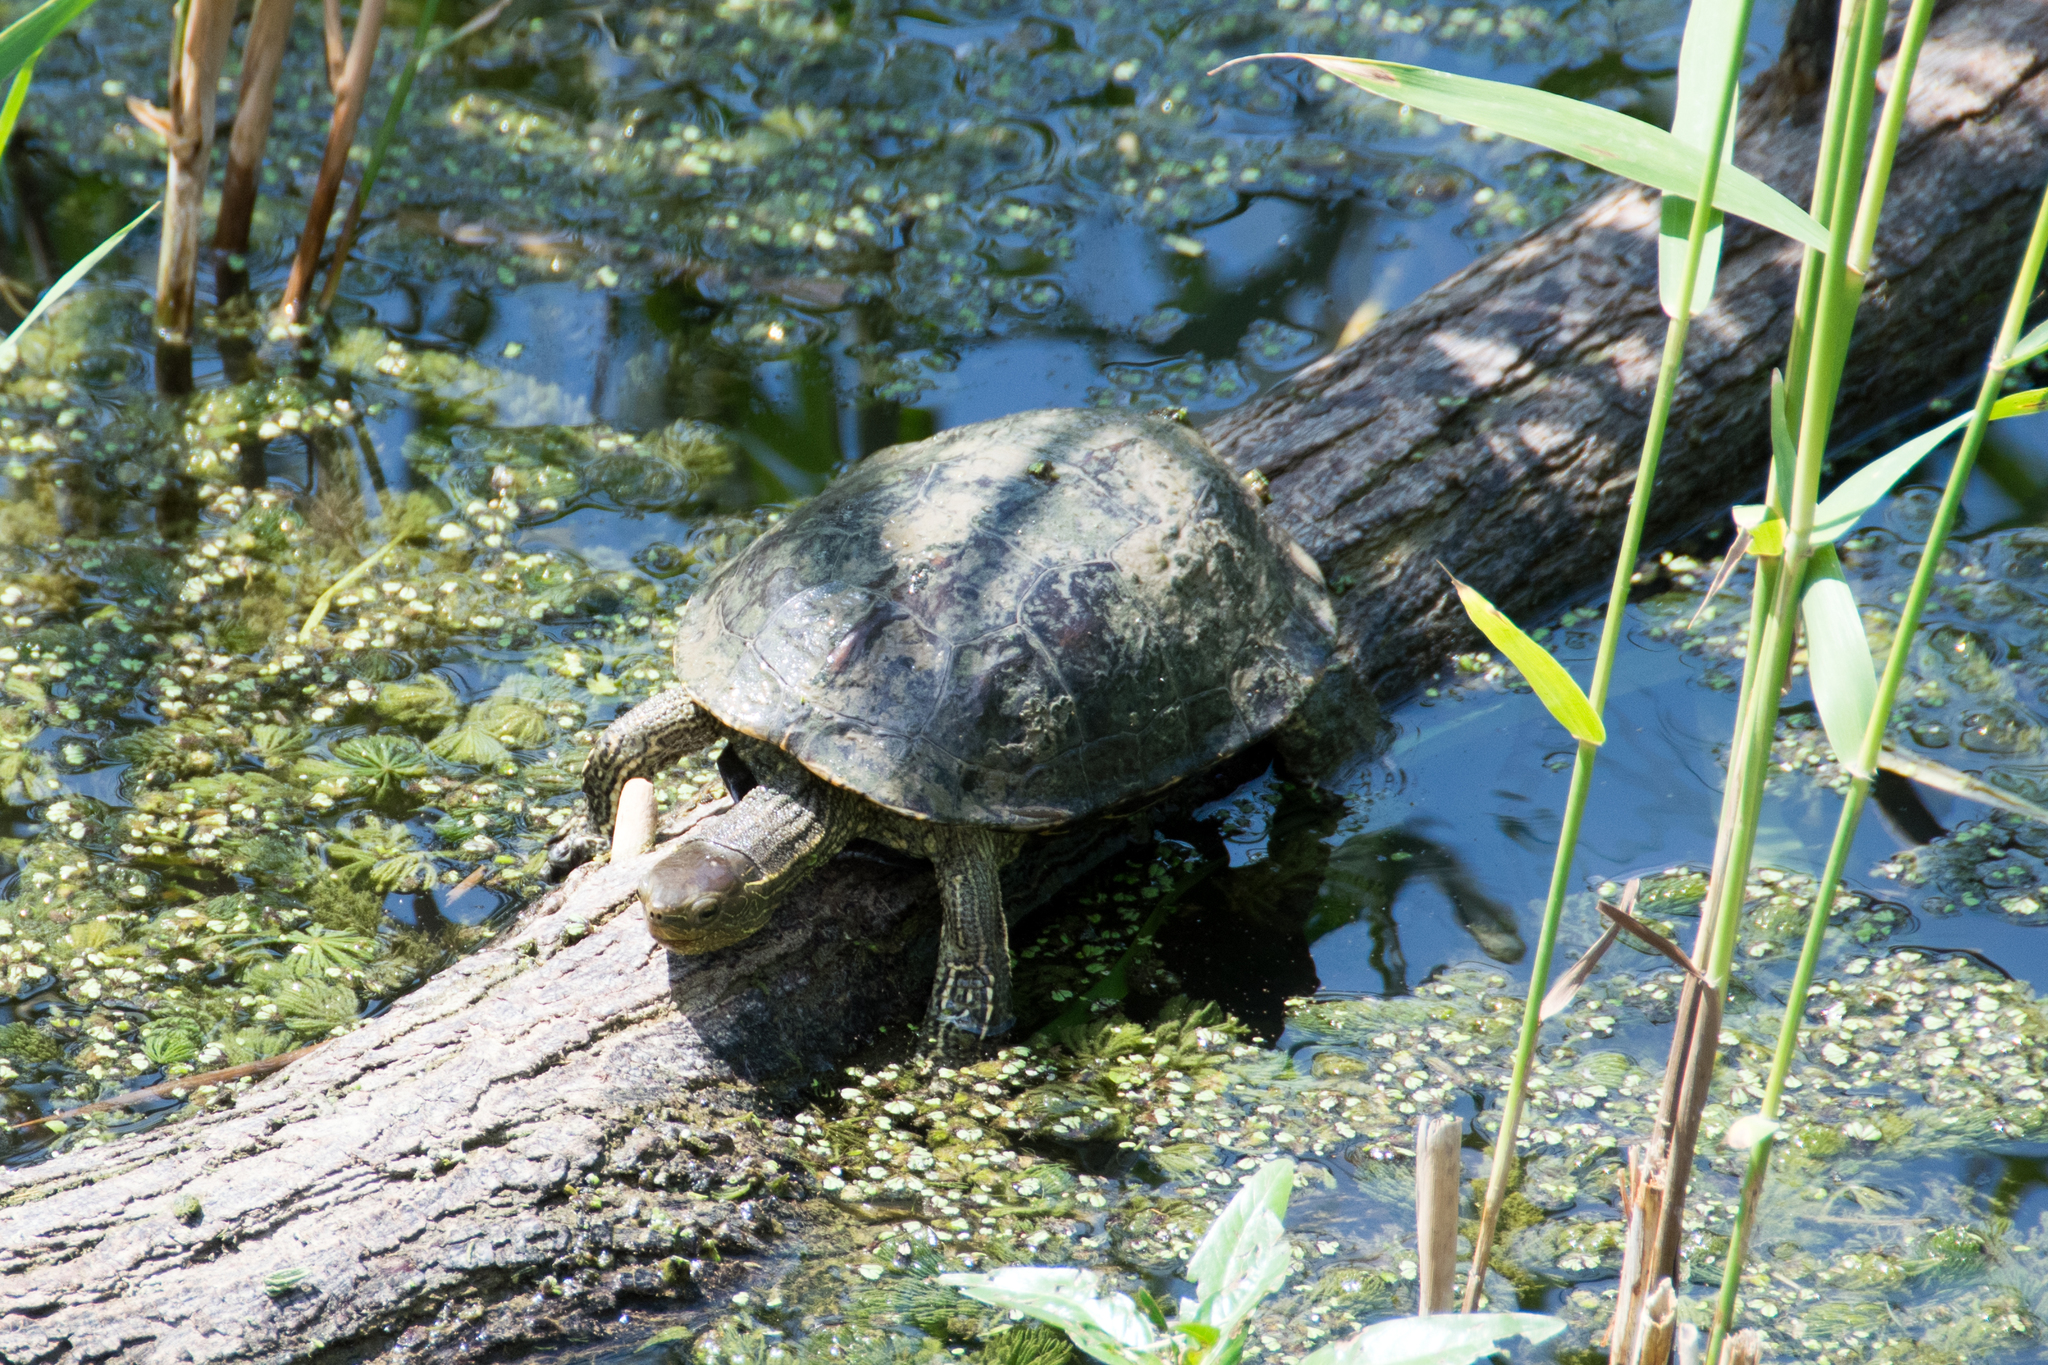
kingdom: Animalia
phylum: Chordata
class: Testudines
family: Geoemydidae
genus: Mauremys
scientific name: Mauremys rivulata
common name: Western caspian turtle
